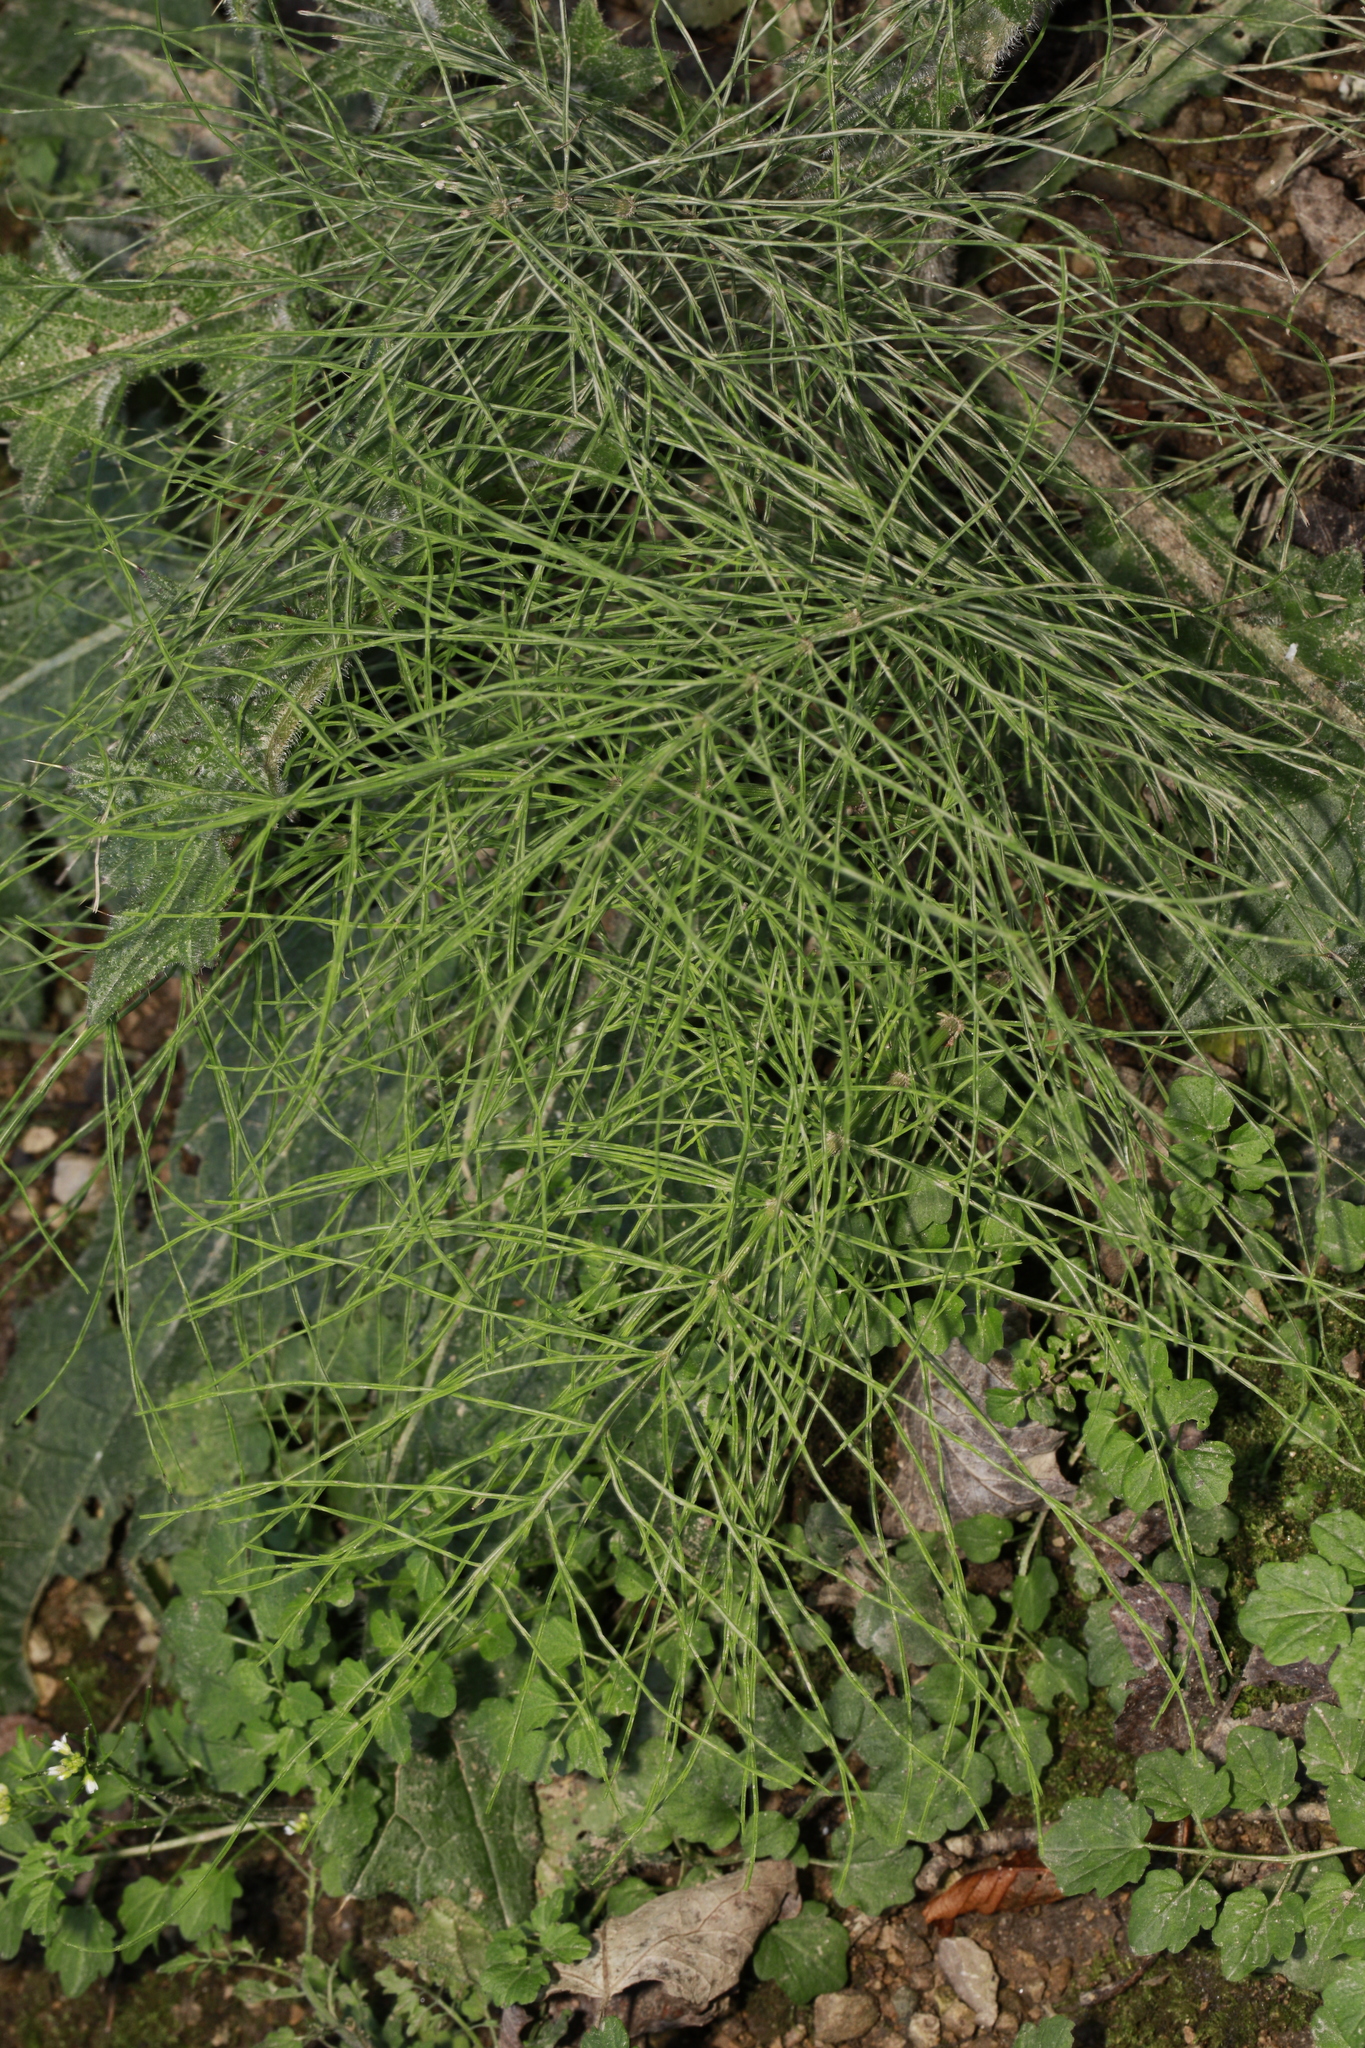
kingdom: Plantae
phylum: Tracheophyta
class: Polypodiopsida
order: Equisetales
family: Equisetaceae
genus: Equisetum
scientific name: Equisetum arvense
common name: Field horsetail
